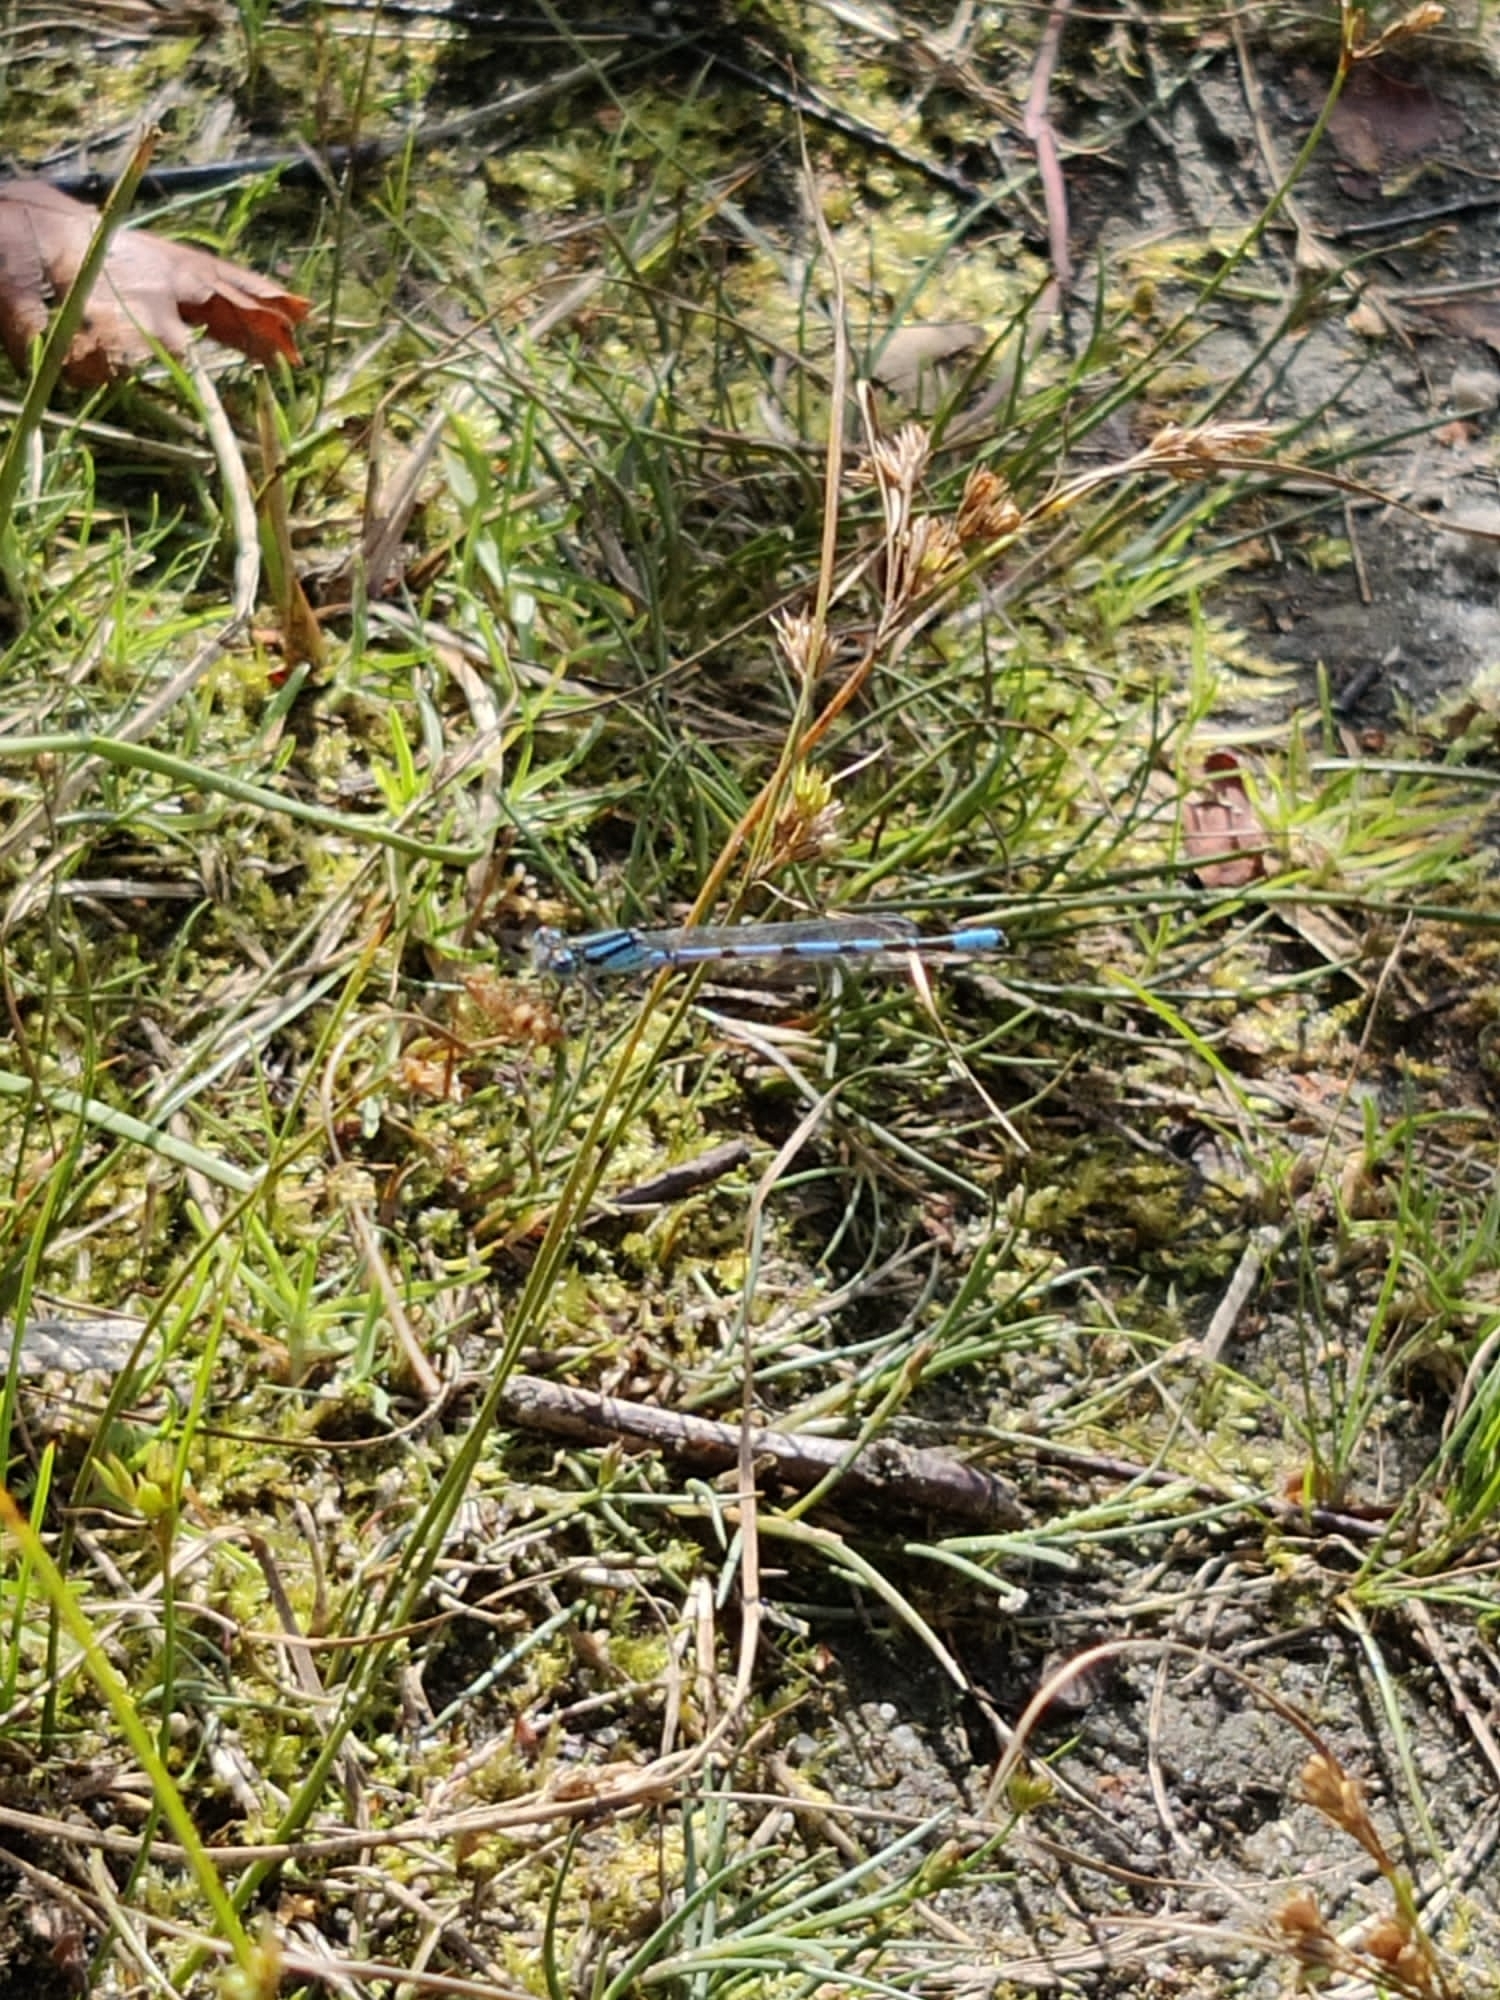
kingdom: Animalia
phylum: Arthropoda
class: Insecta
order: Odonata
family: Coenagrionidae
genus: Enallagma
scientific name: Enallagma cyathigerum
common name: Common blue damselfly
